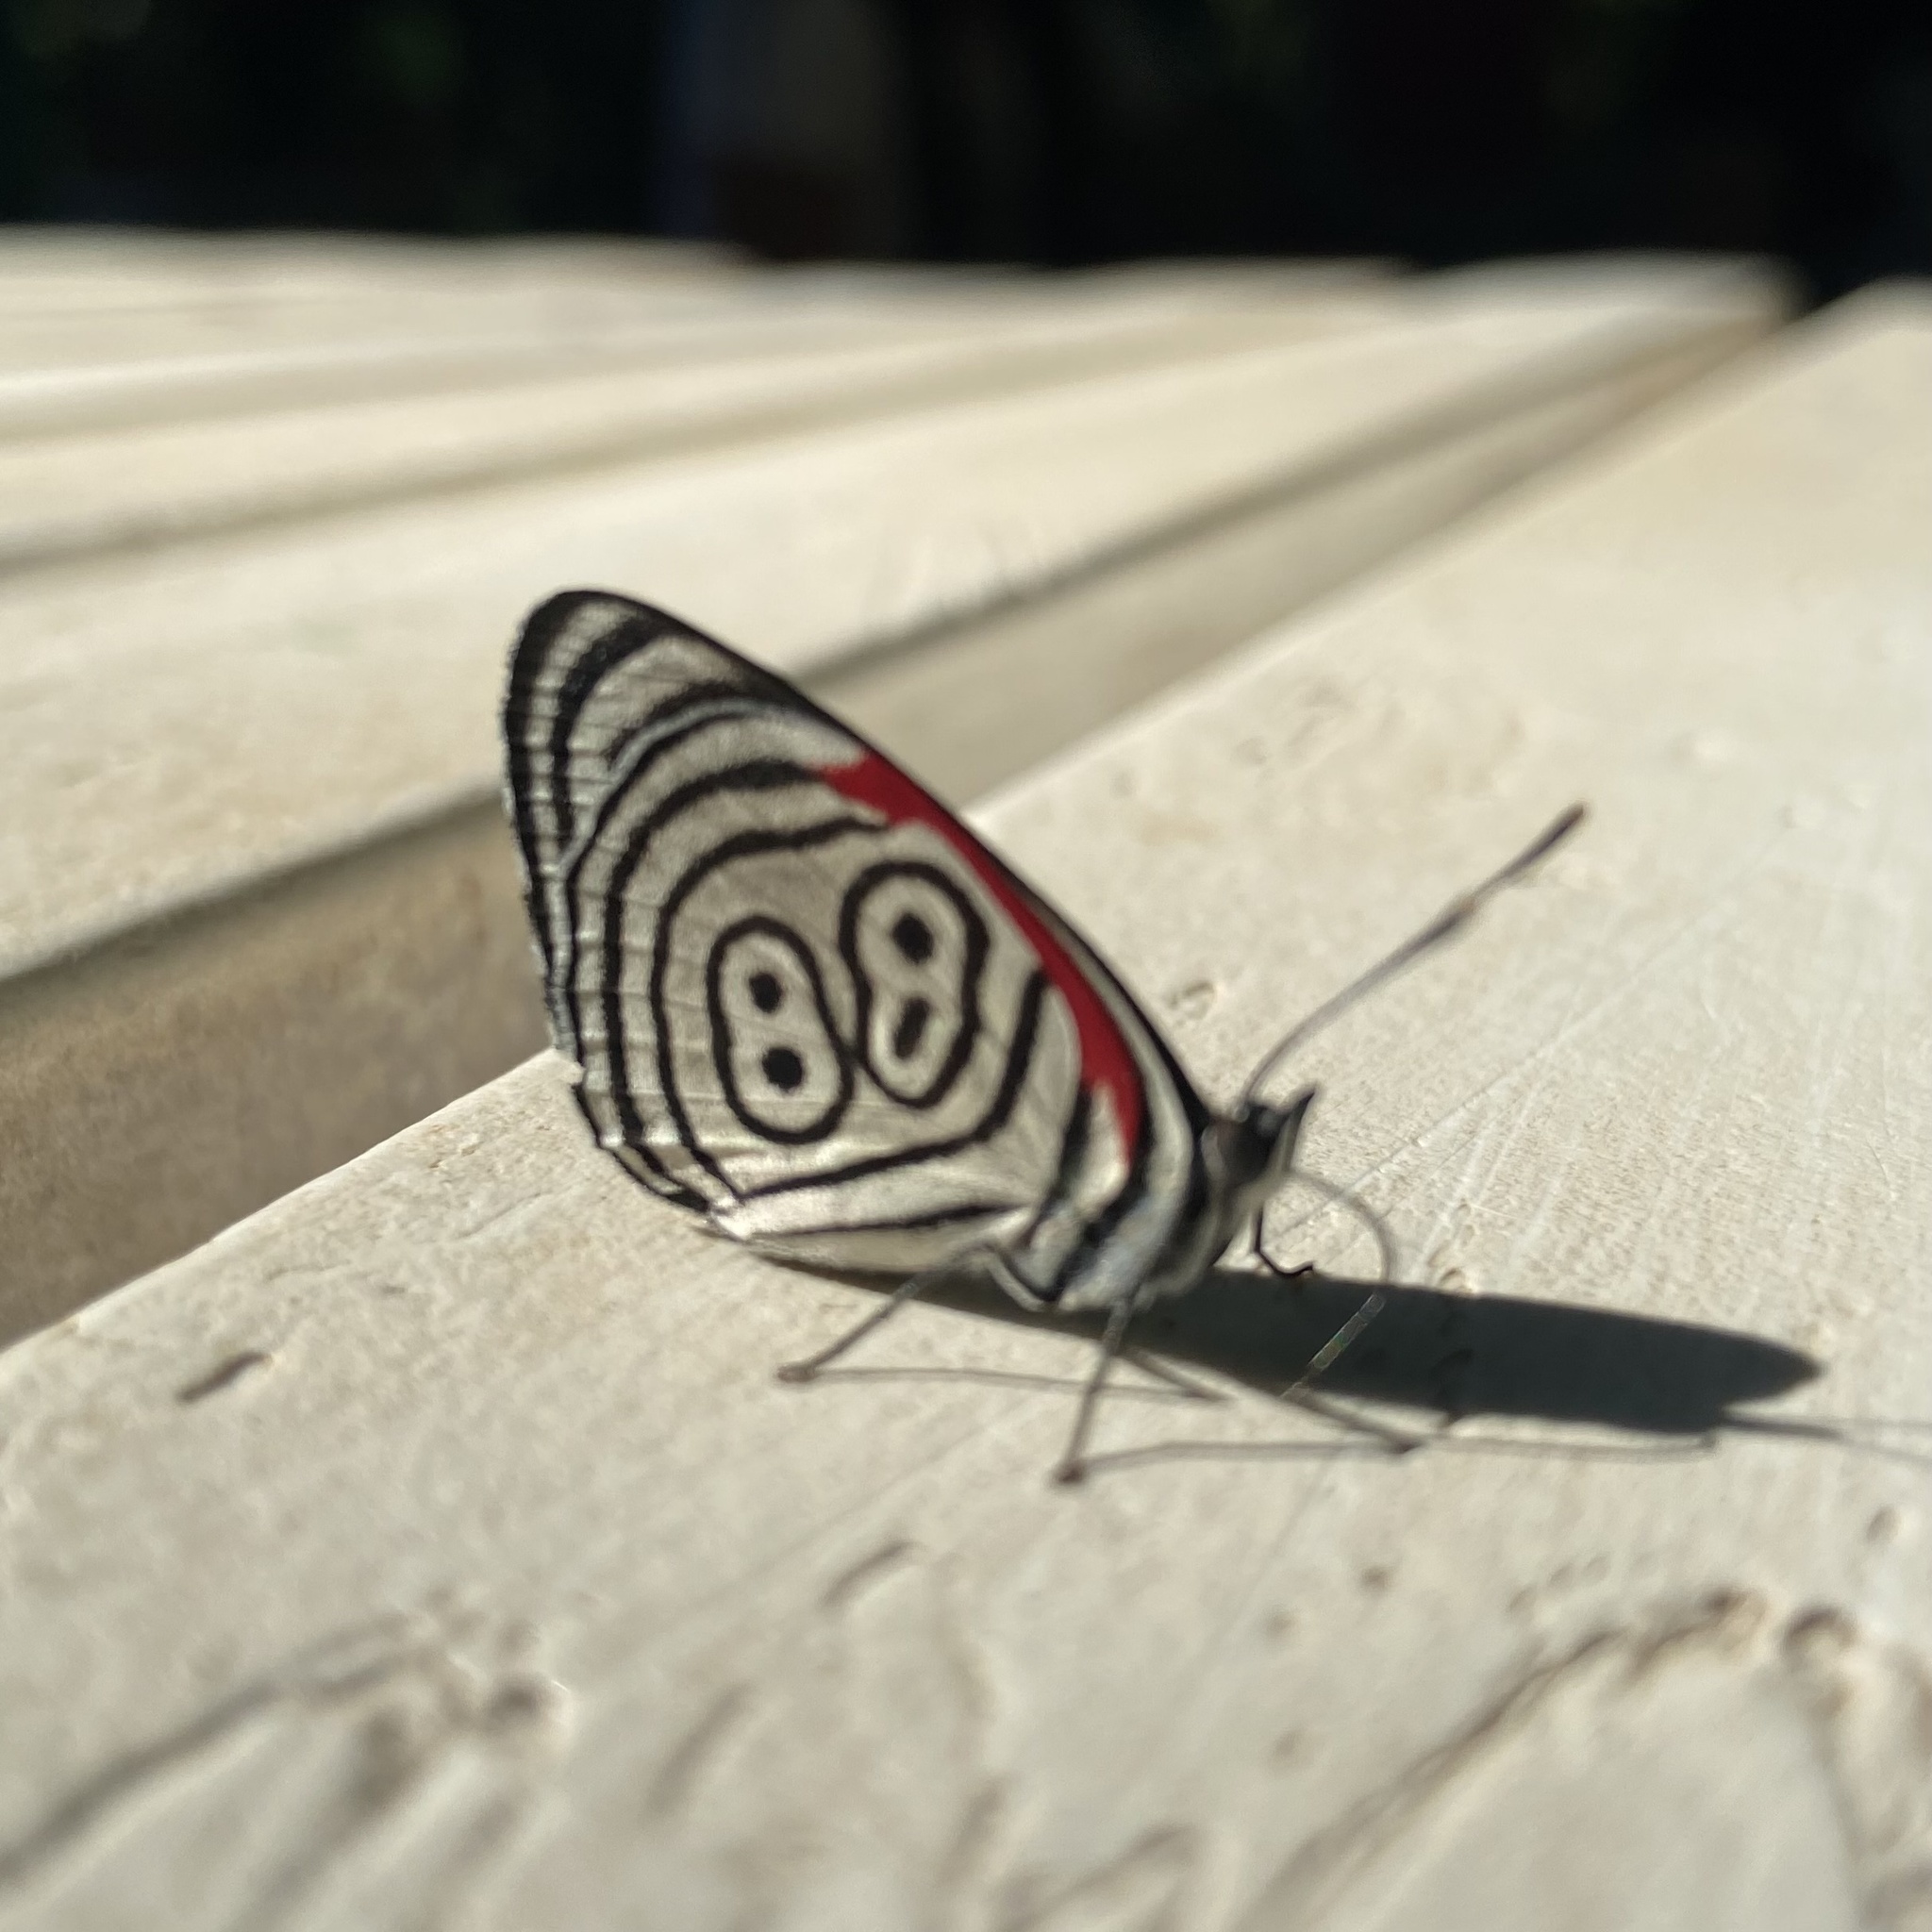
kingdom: Animalia
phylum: Arthropoda
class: Insecta
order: Lepidoptera
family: Nymphalidae
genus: Diaethria
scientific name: Diaethria clymena
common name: Widespread eighty-eight
